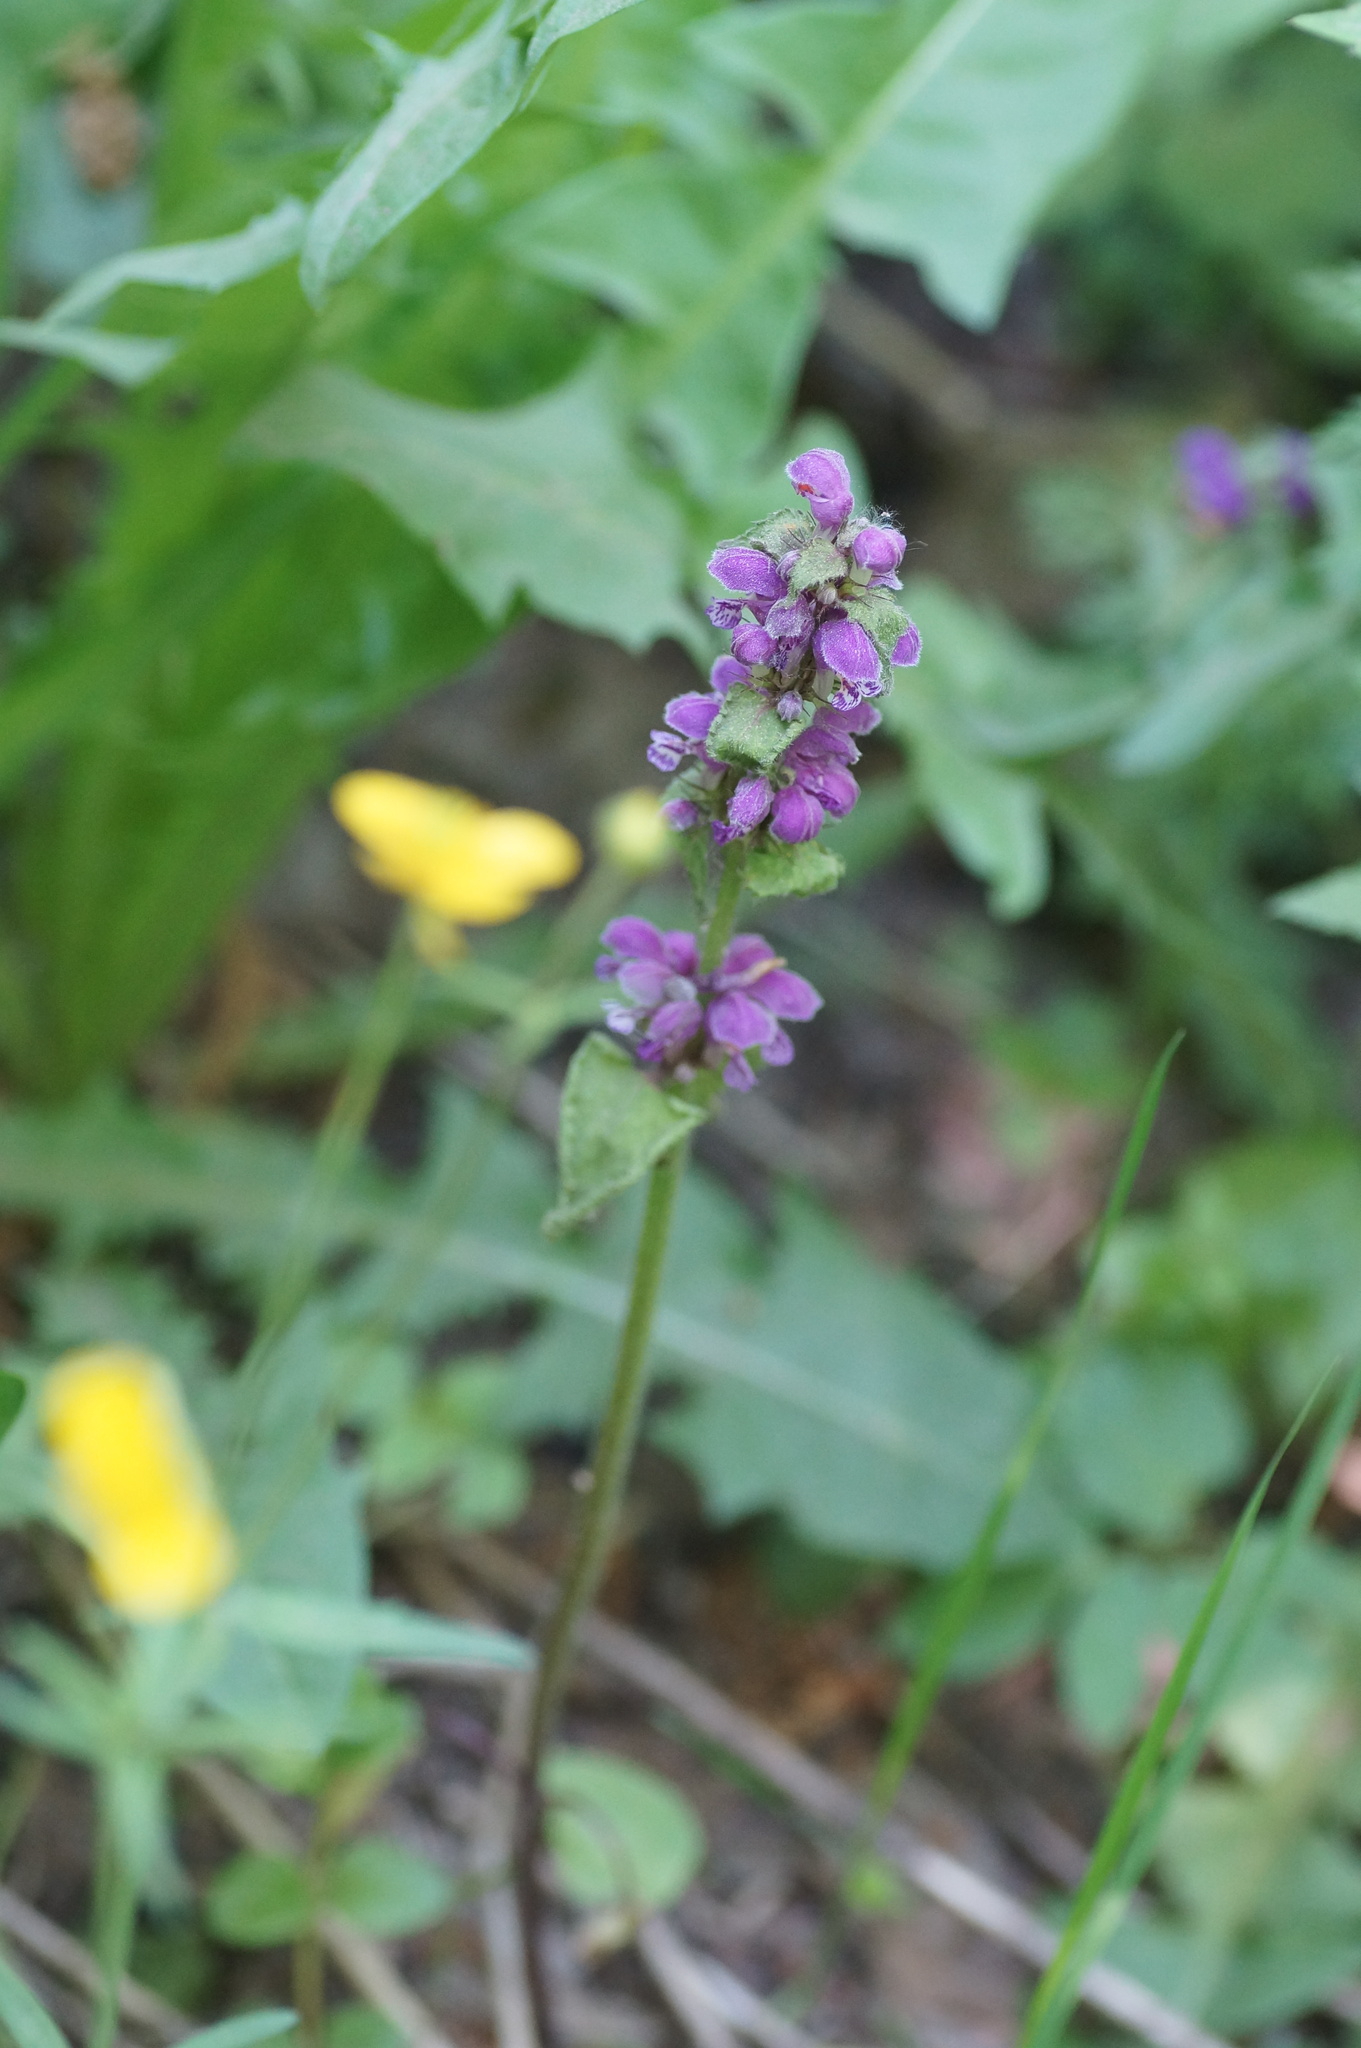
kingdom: Plantae
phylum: Tracheophyta
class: Magnoliopsida
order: Lamiales
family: Lamiaceae
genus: Lamium
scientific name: Lamium maculatum
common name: Spotted dead-nettle
